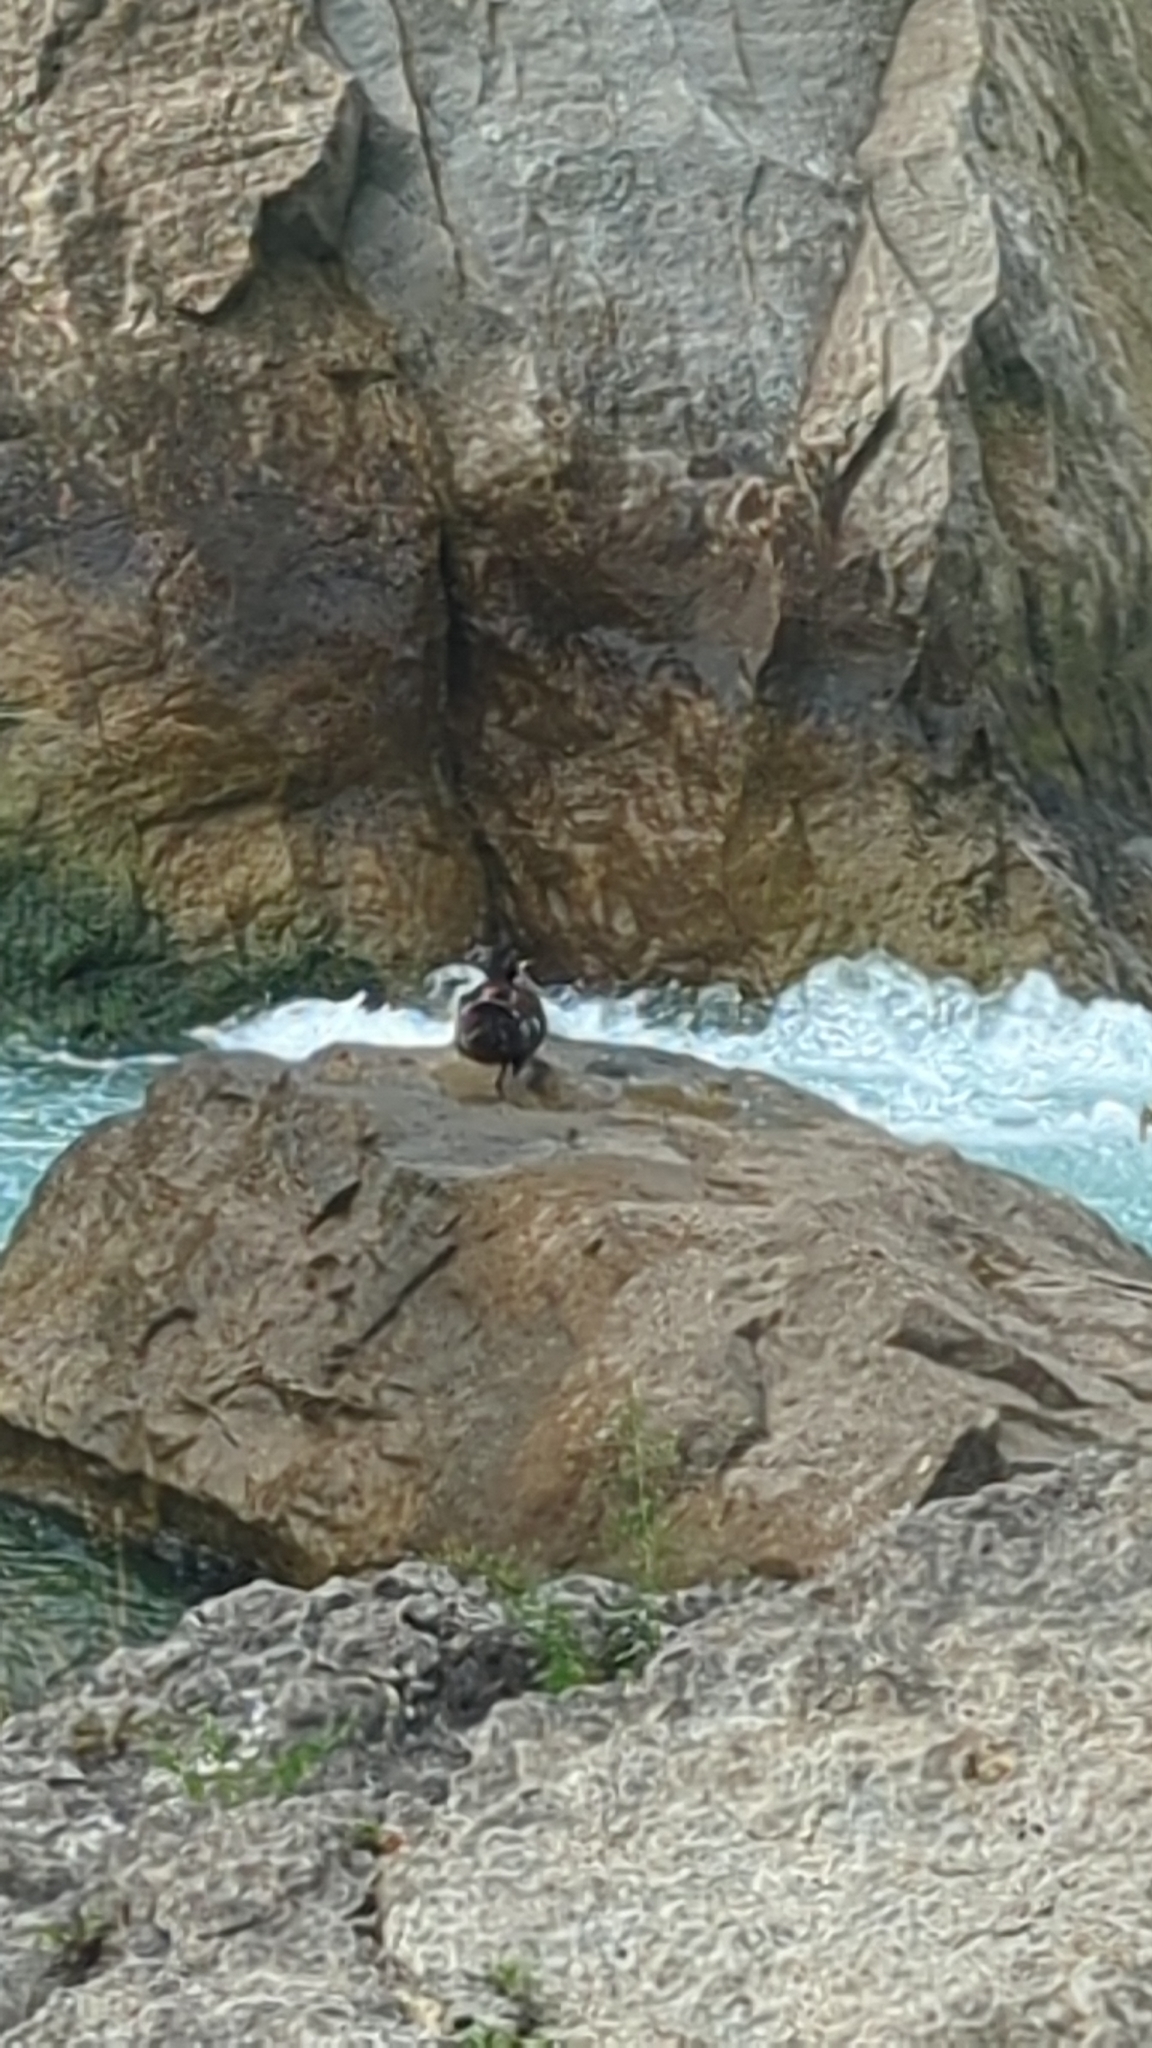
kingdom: Animalia
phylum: Chordata
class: Aves
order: Anseriformes
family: Anatidae
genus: Histrionicus
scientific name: Histrionicus histrionicus
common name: Harlequin duck
